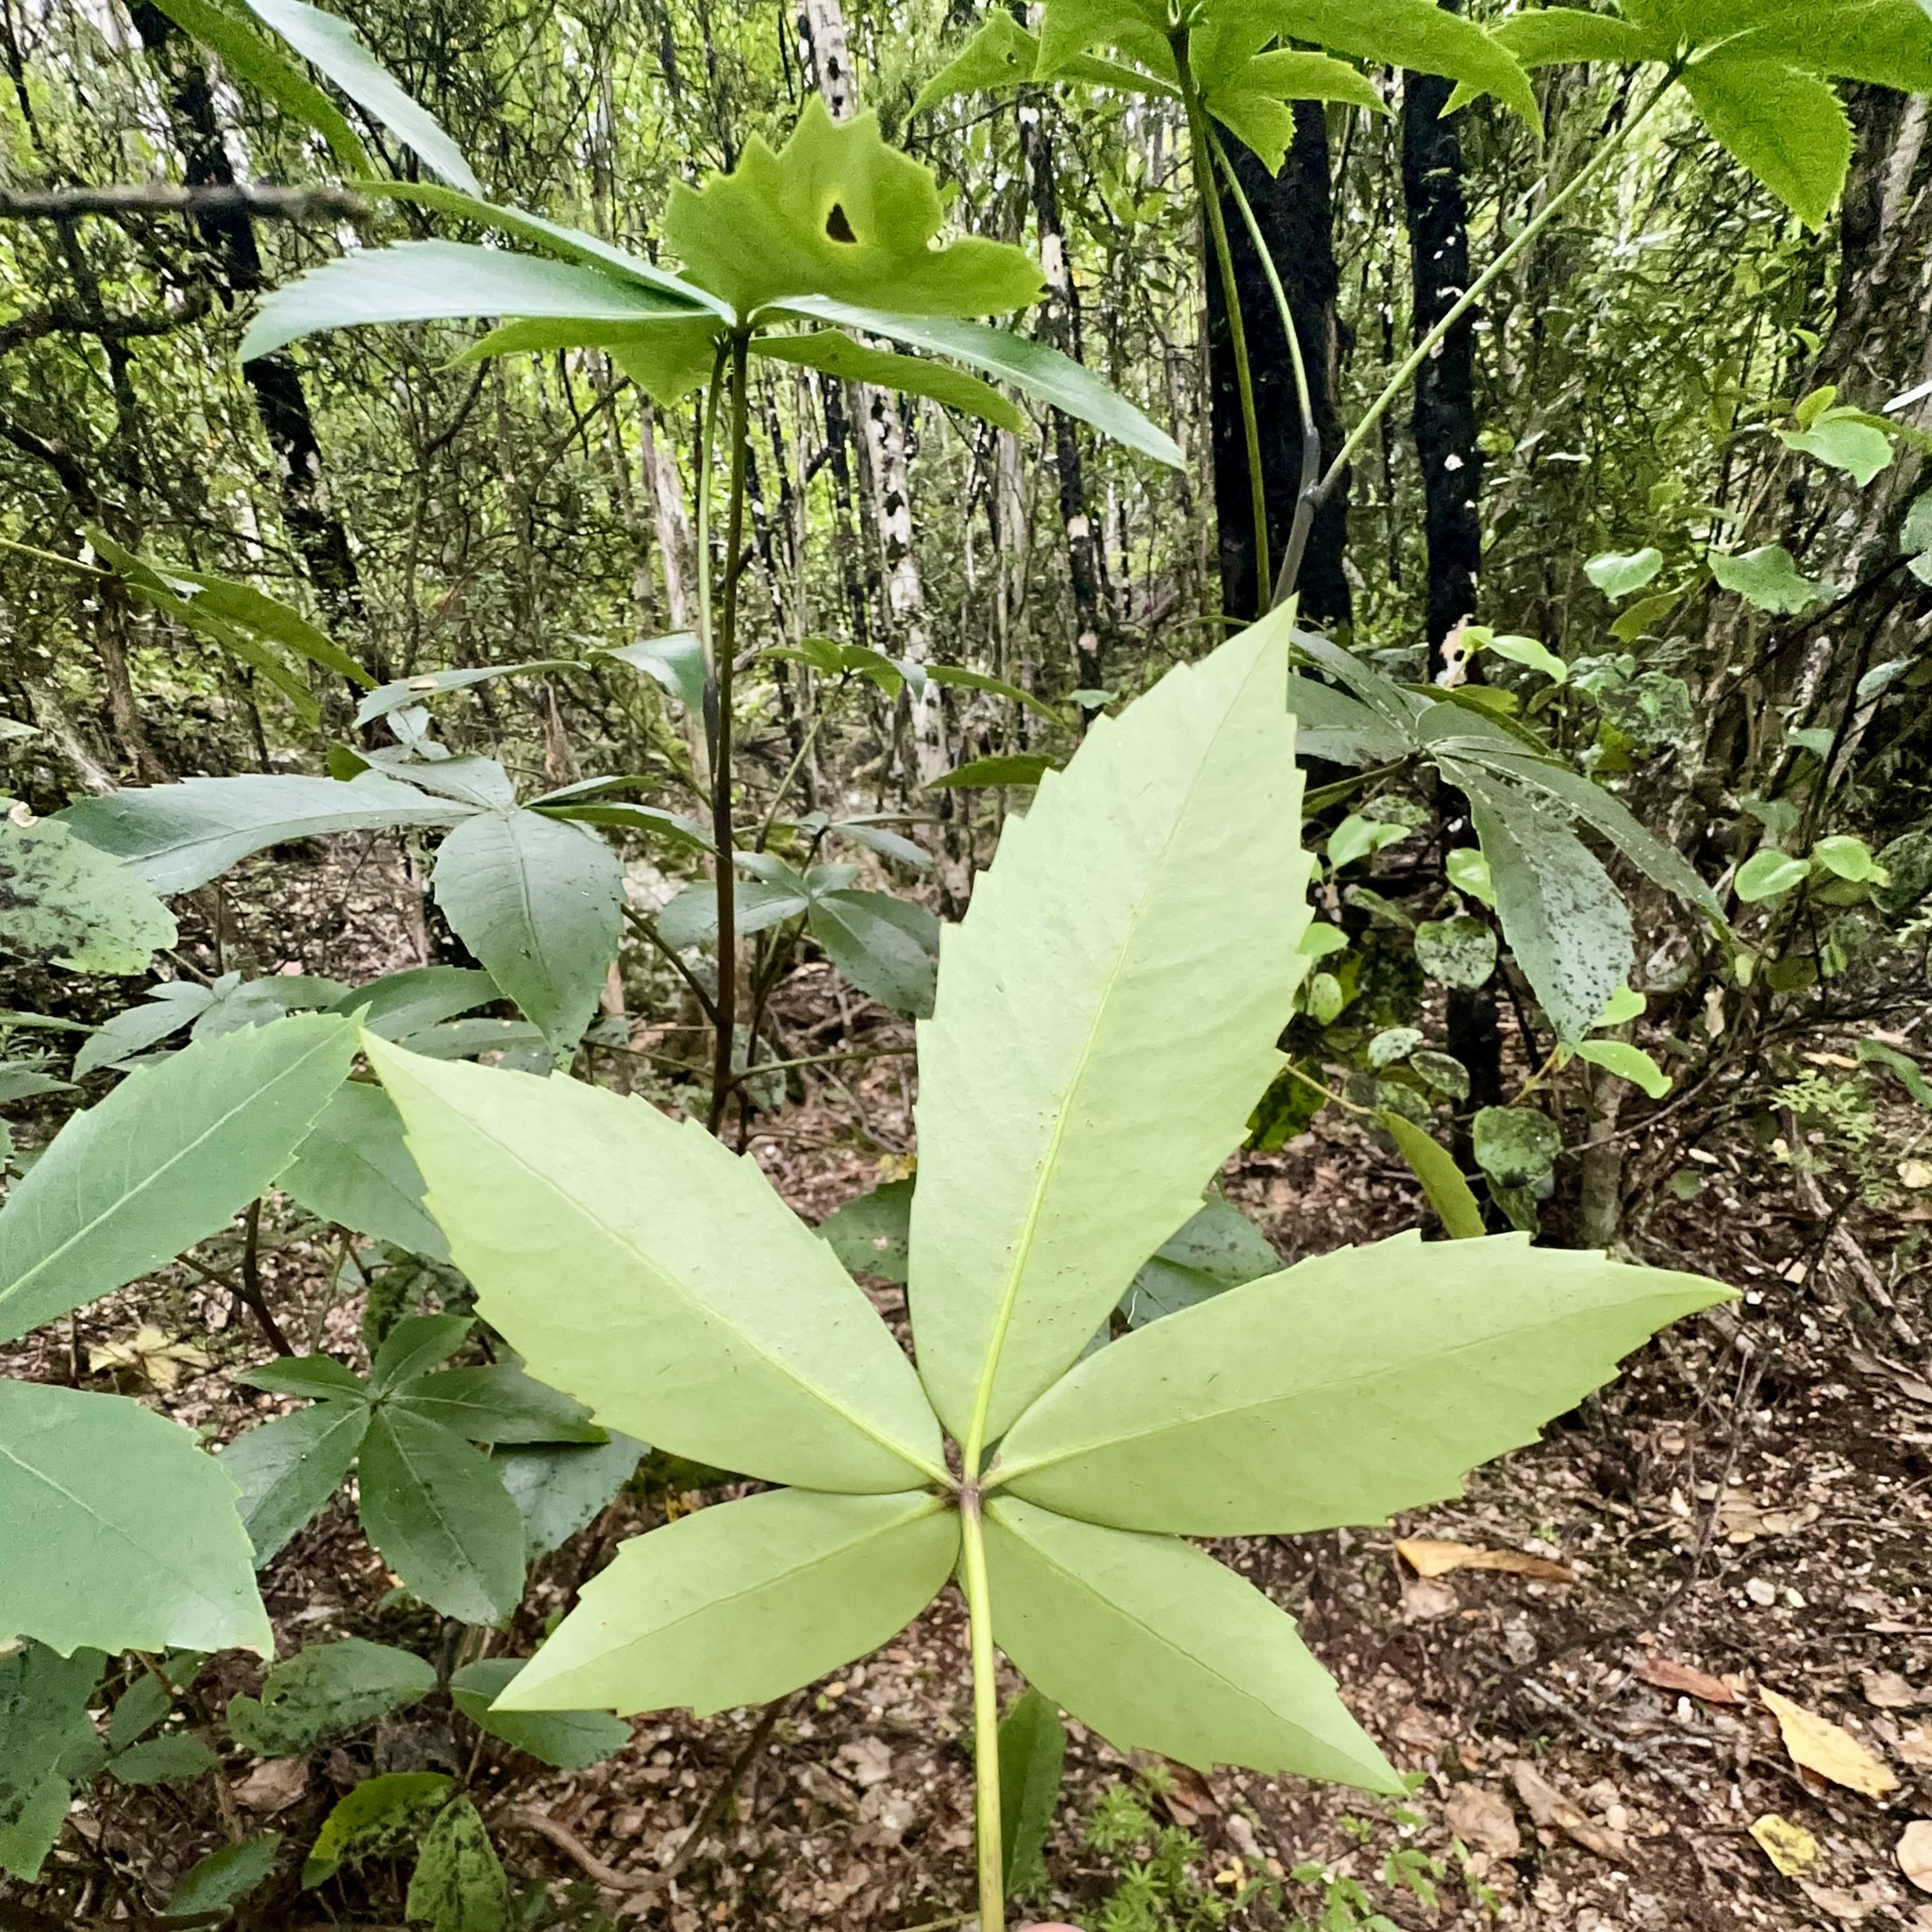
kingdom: Plantae
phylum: Tracheophyta
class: Magnoliopsida
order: Apiales
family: Araliaceae
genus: Neopanax
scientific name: Neopanax colensoi
